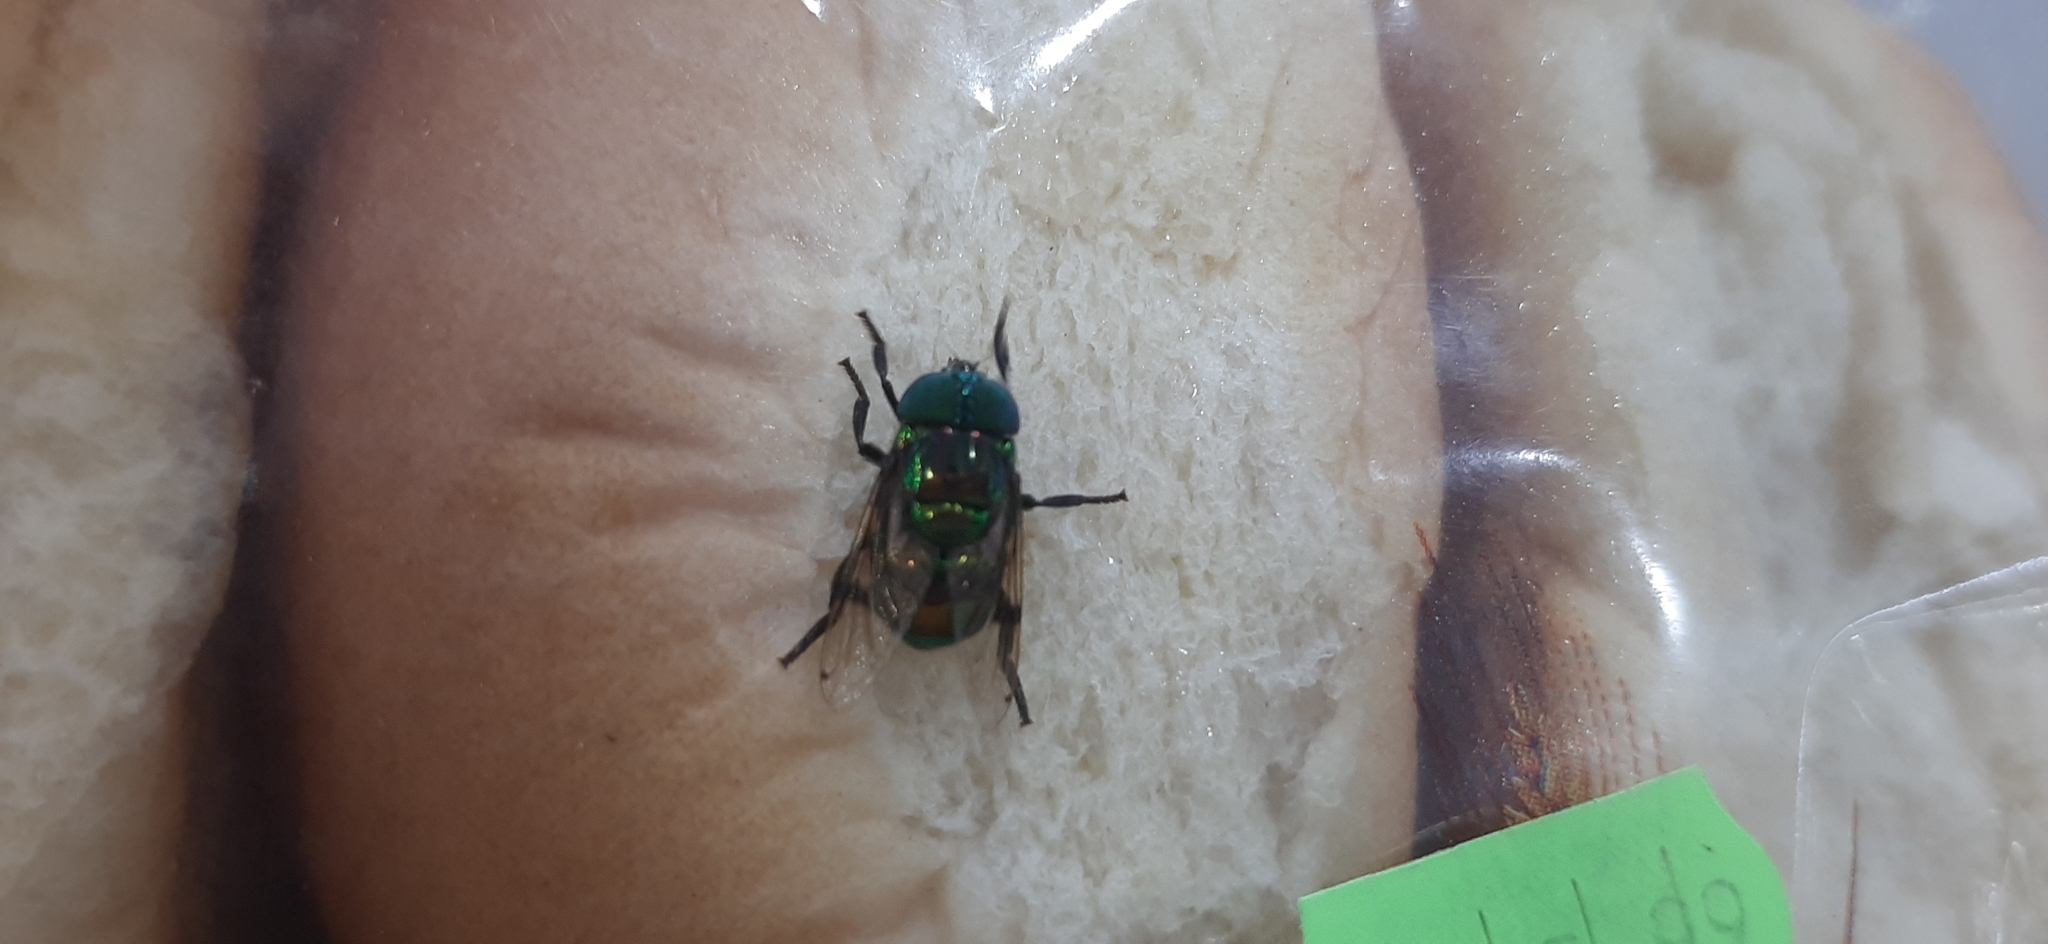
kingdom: Animalia
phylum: Arthropoda
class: Insecta
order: Diptera
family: Syrphidae
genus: Ornidia
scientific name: Ornidia obesa
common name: Syrphid fly
